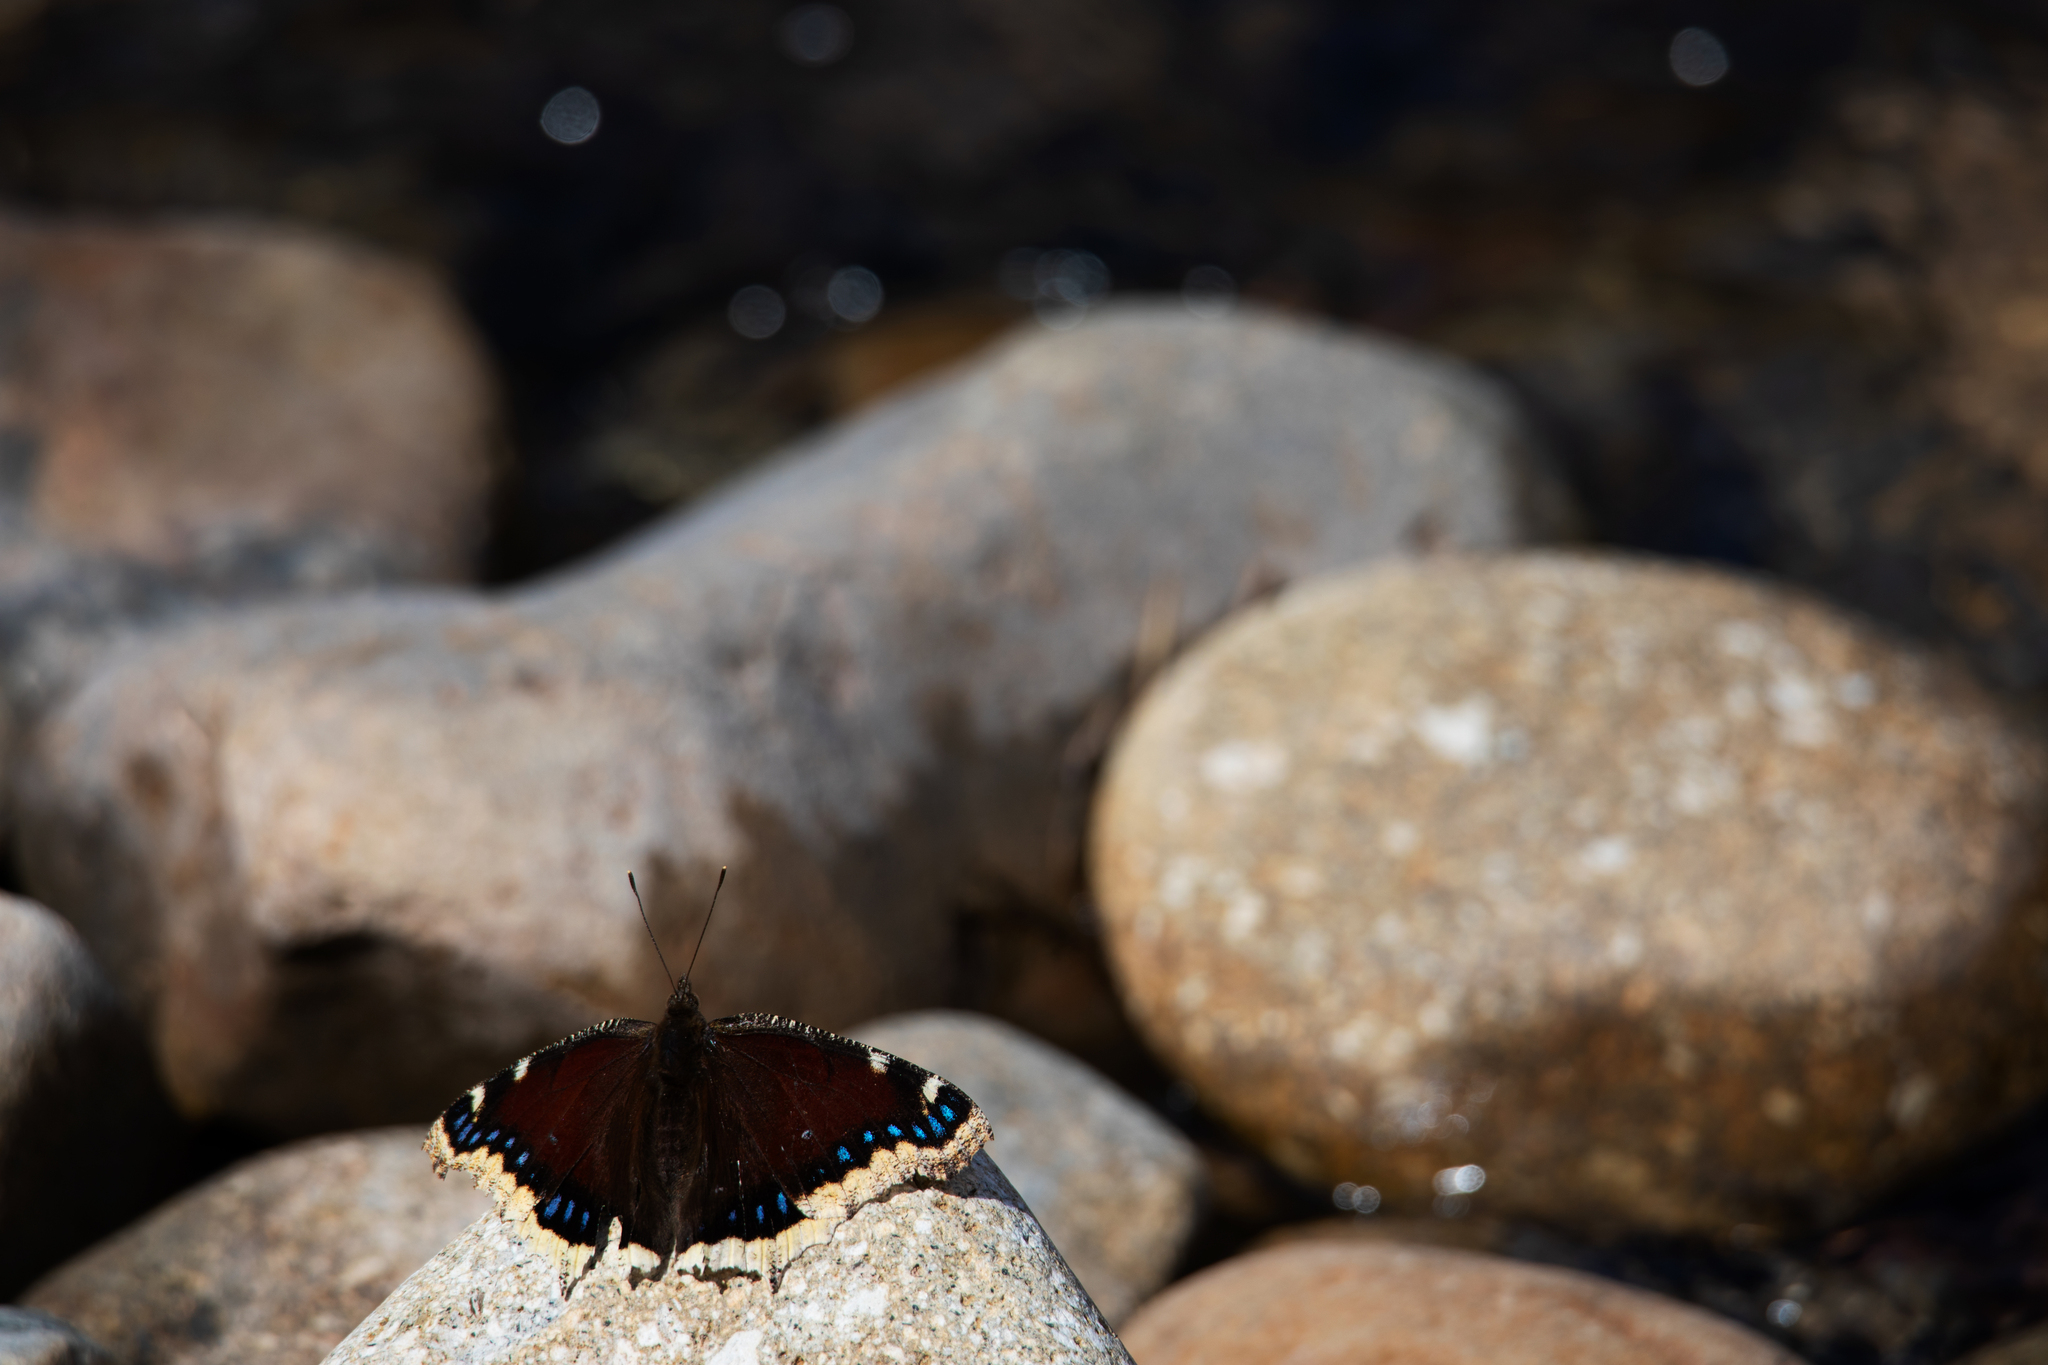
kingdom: Animalia
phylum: Arthropoda
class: Insecta
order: Lepidoptera
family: Nymphalidae
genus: Nymphalis
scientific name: Nymphalis antiopa
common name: Camberwell beauty
